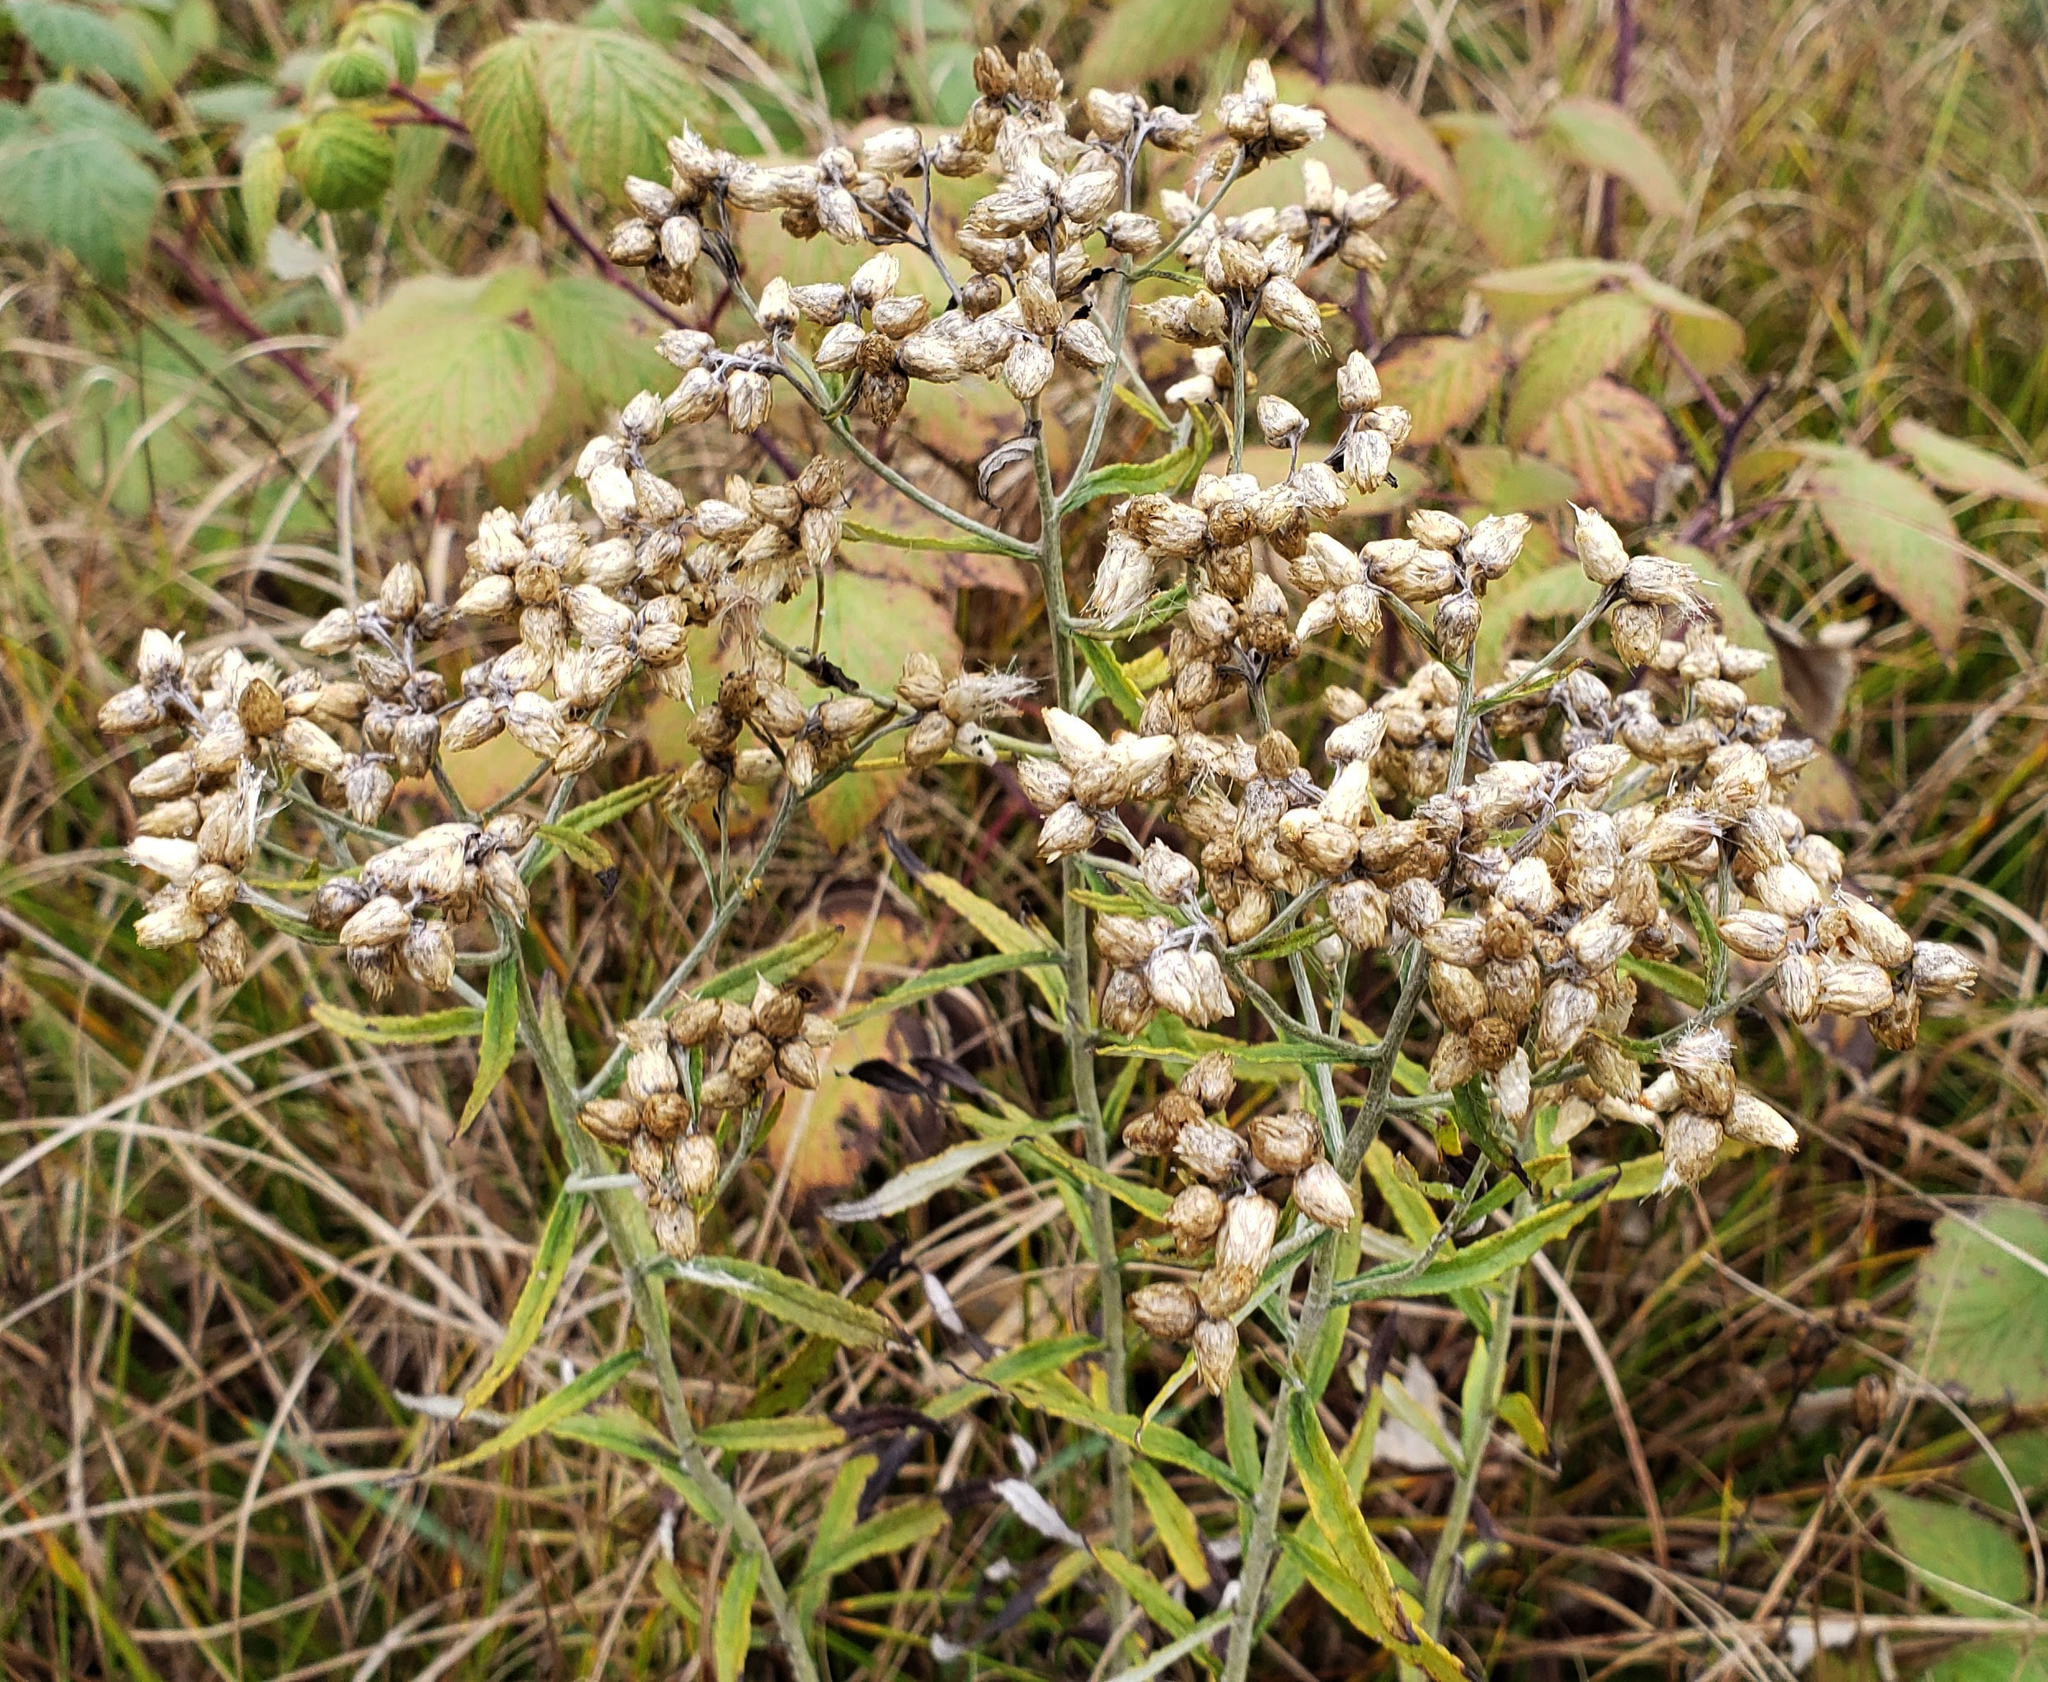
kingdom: Plantae
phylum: Tracheophyta
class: Magnoliopsida
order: Asterales
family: Asteraceae
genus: Pseudognaphalium
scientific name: Pseudognaphalium obtusifolium
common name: Eastern rabbit-tobacco
